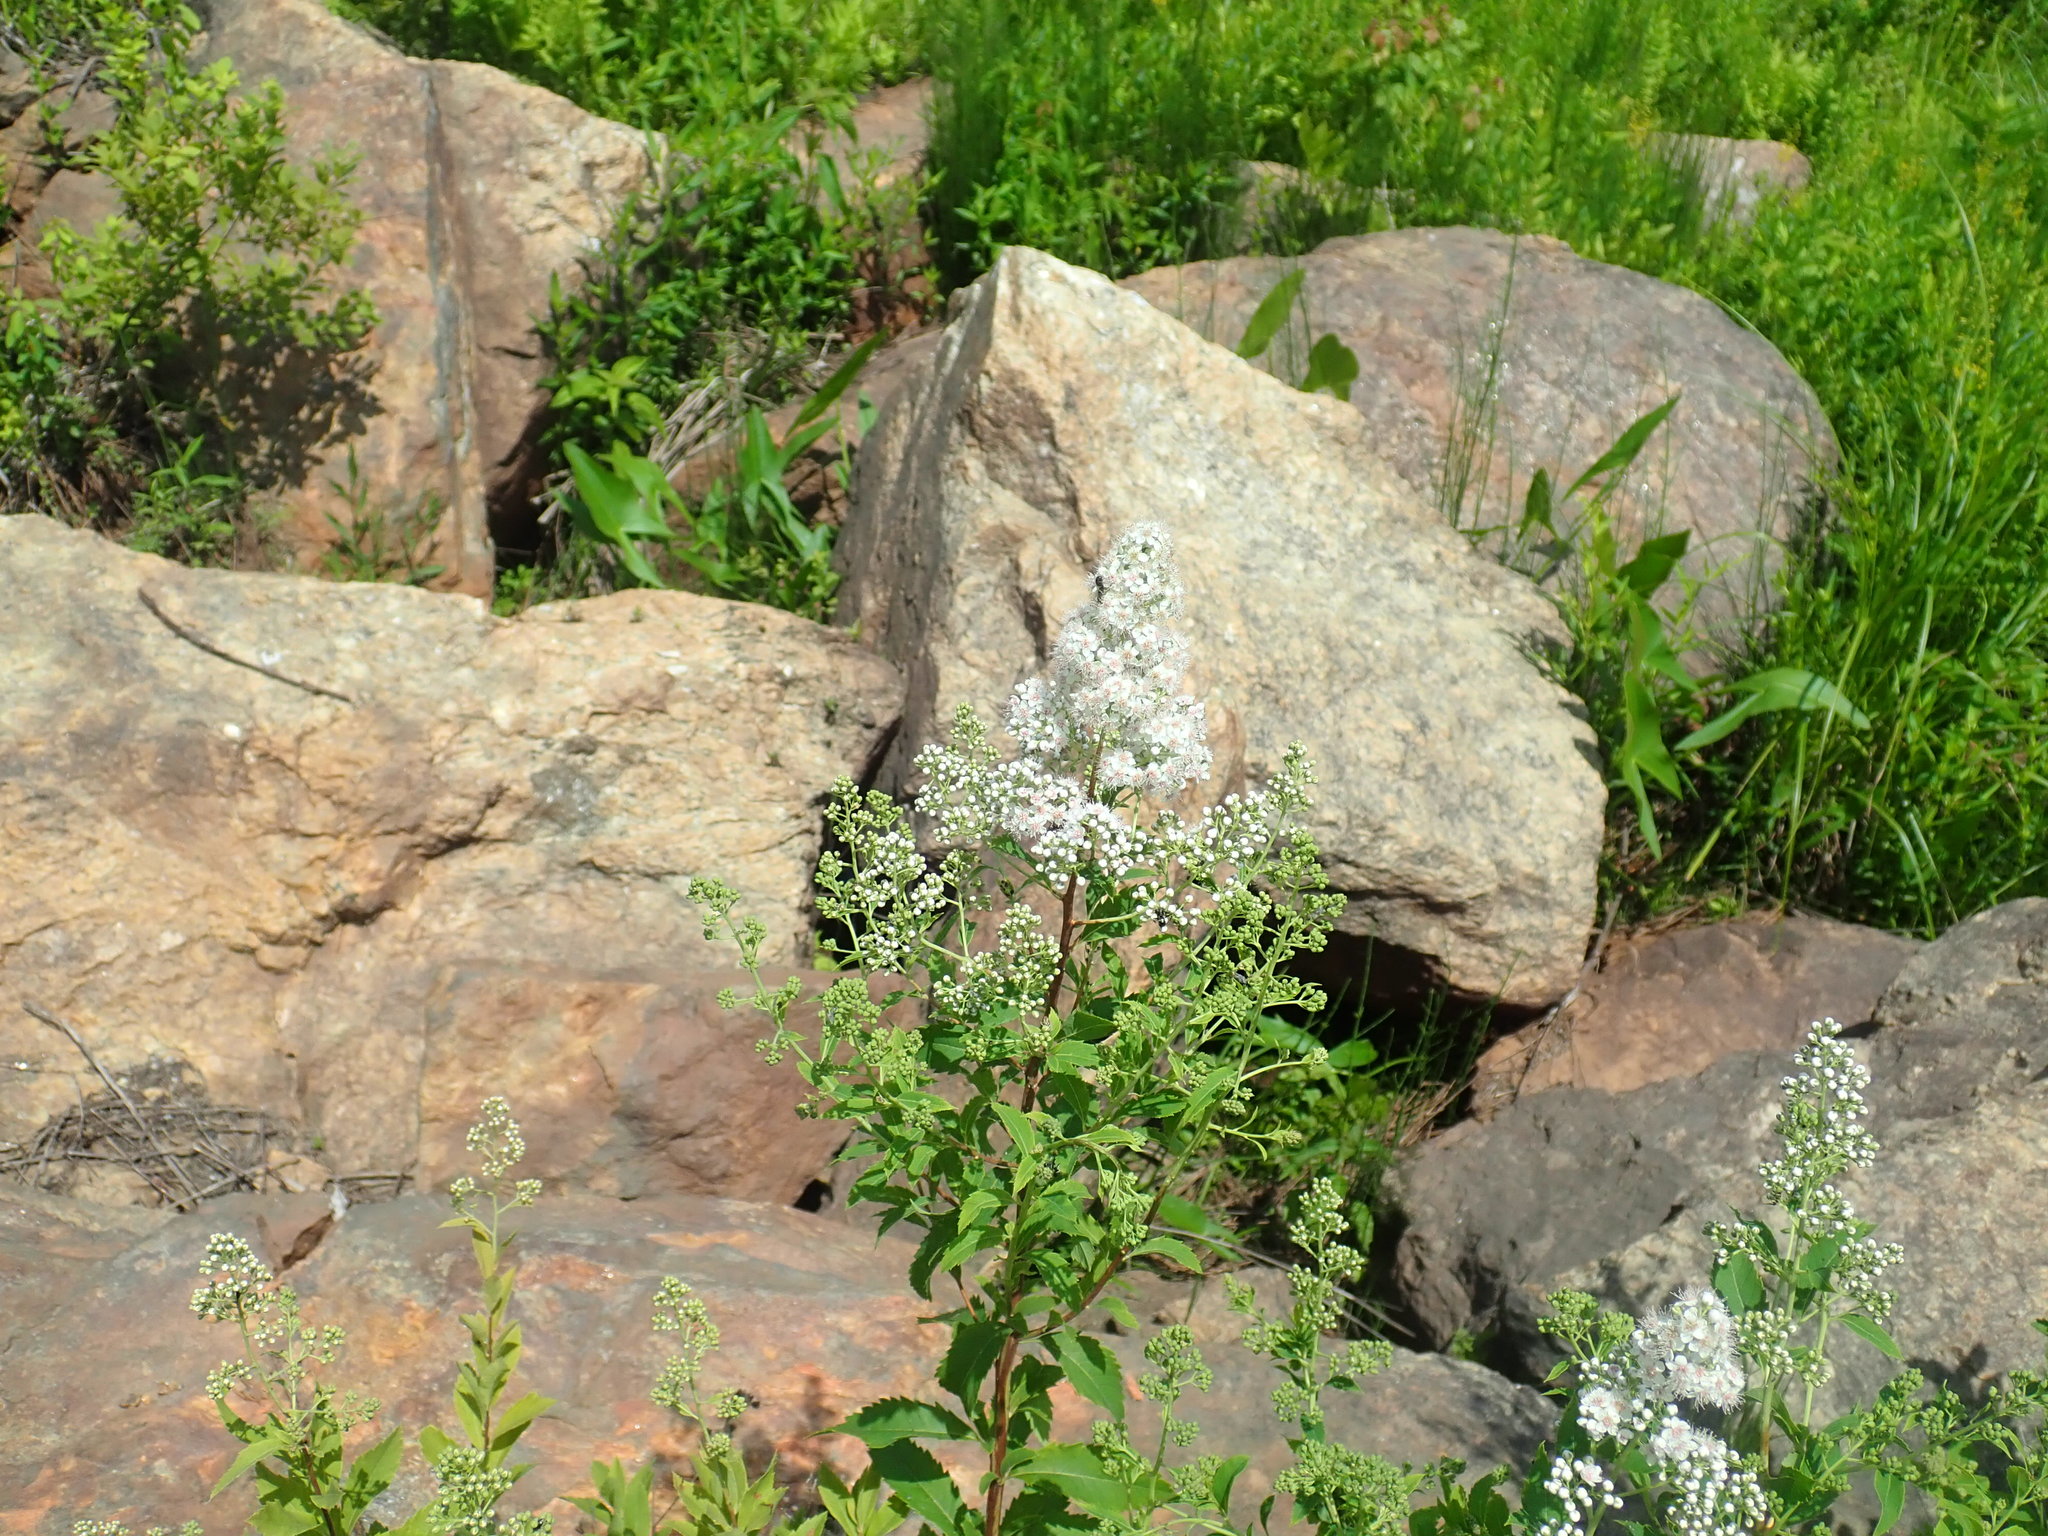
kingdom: Plantae
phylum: Tracheophyta
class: Magnoliopsida
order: Rosales
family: Rosaceae
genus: Spiraea
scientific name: Spiraea alba
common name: Pale bridewort
